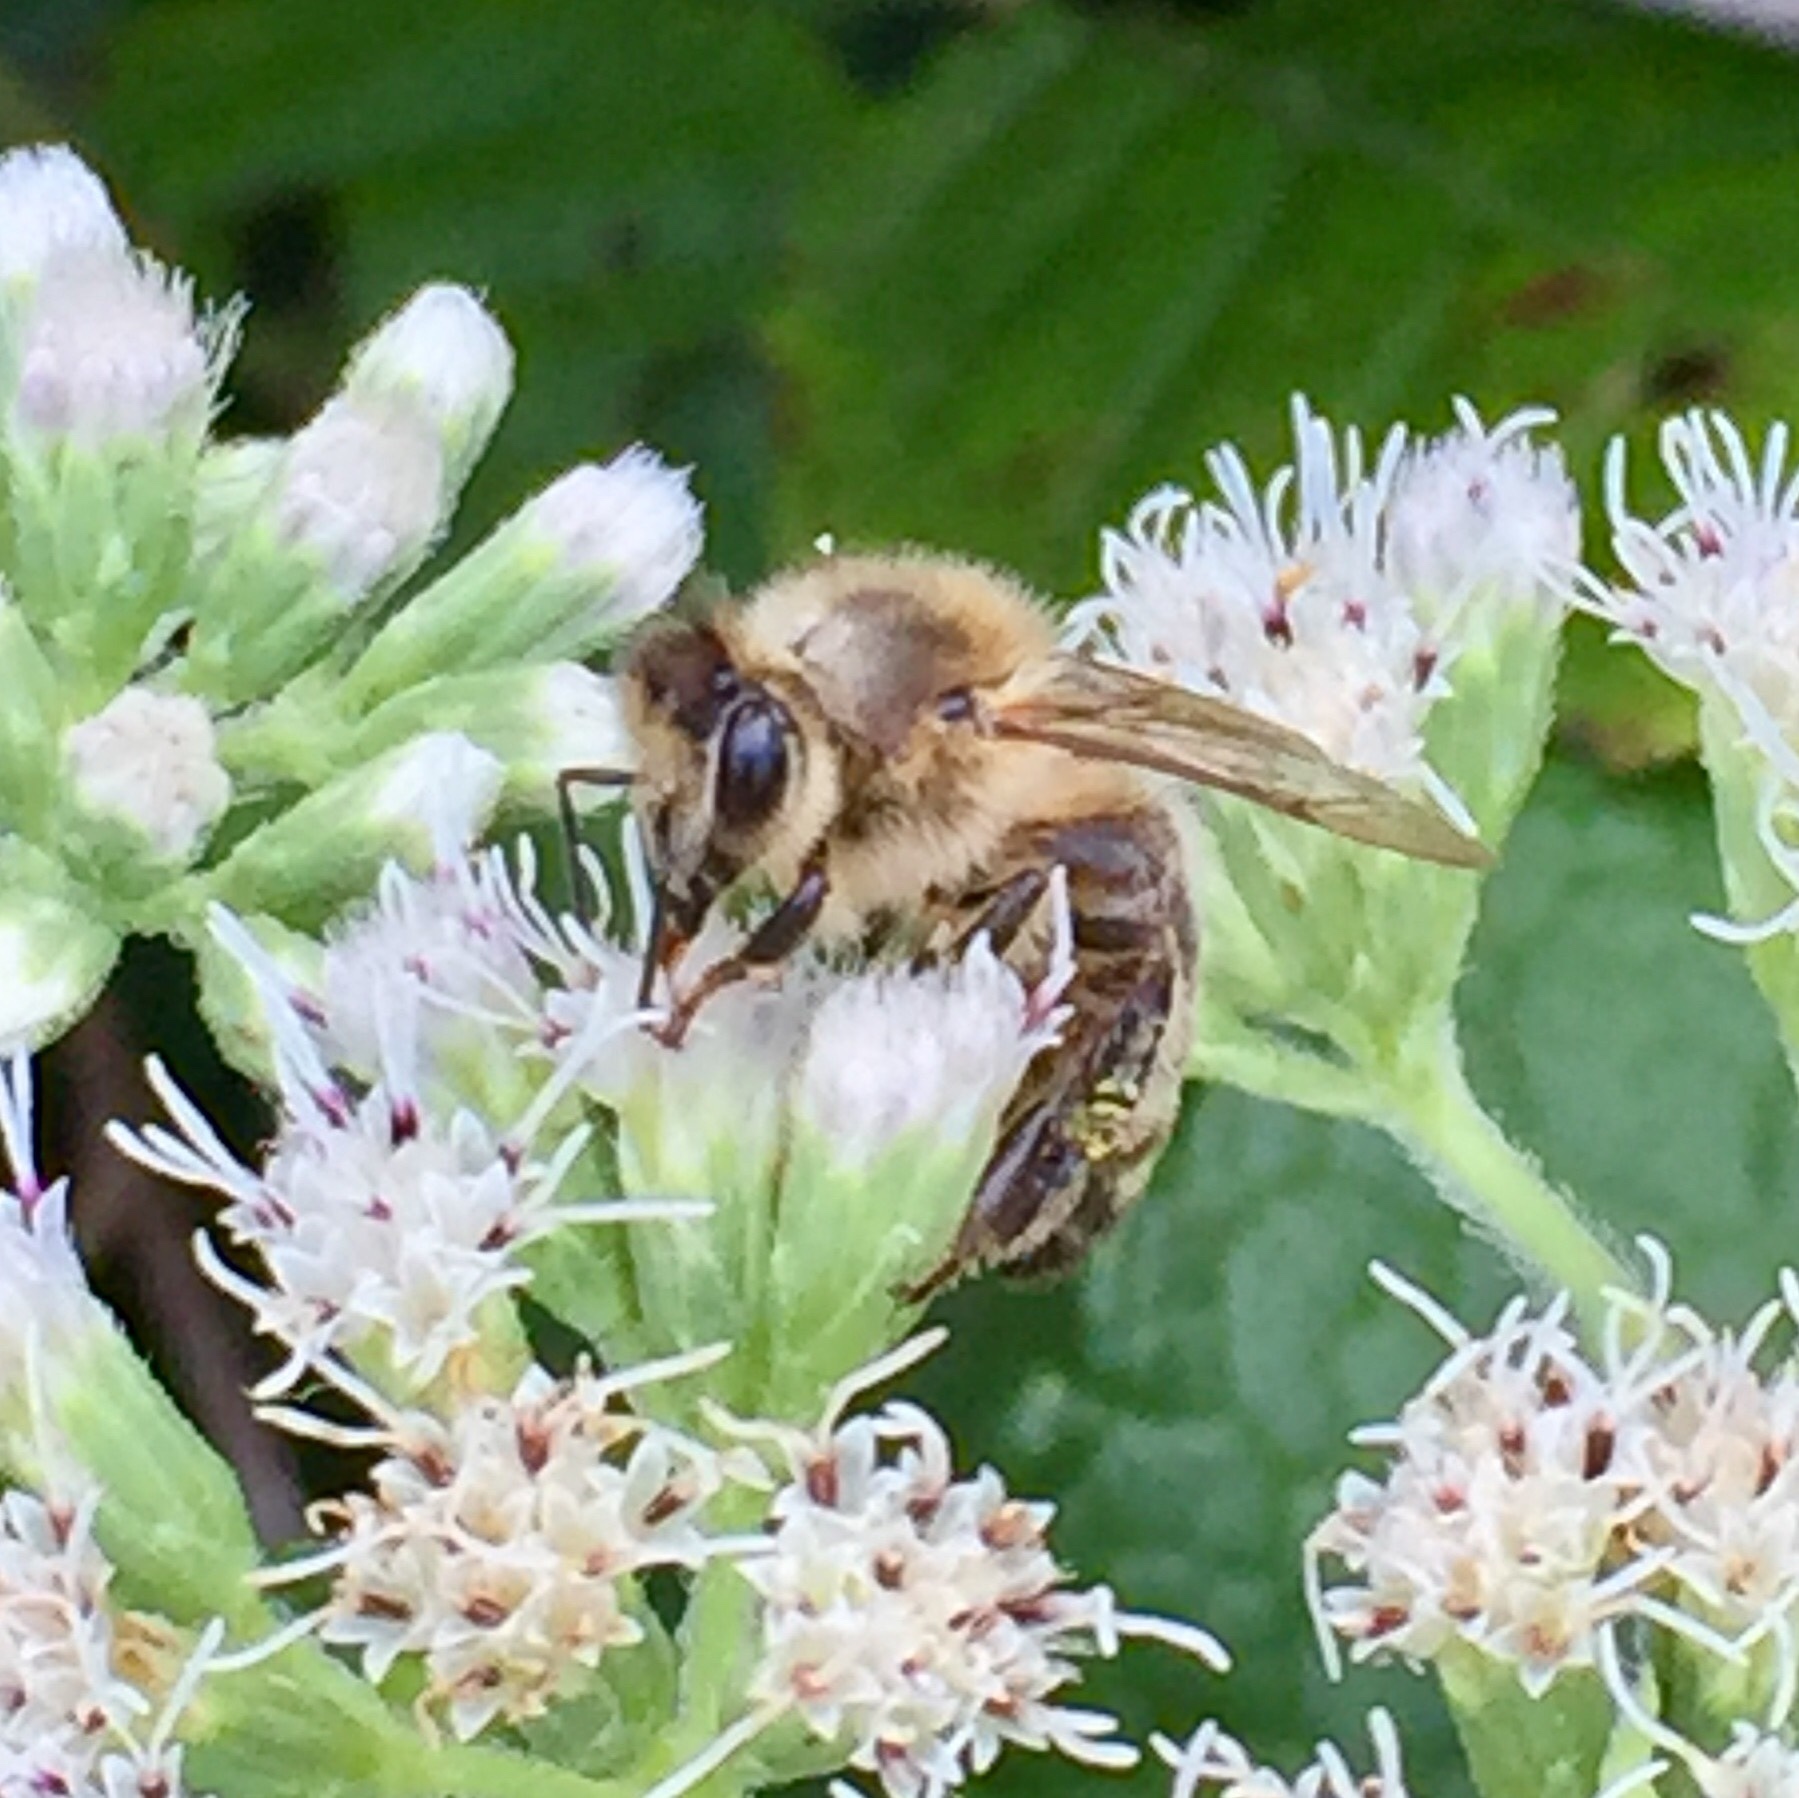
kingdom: Animalia
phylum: Arthropoda
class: Insecta
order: Hymenoptera
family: Apidae
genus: Apis
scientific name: Apis mellifera
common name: Honey bee
